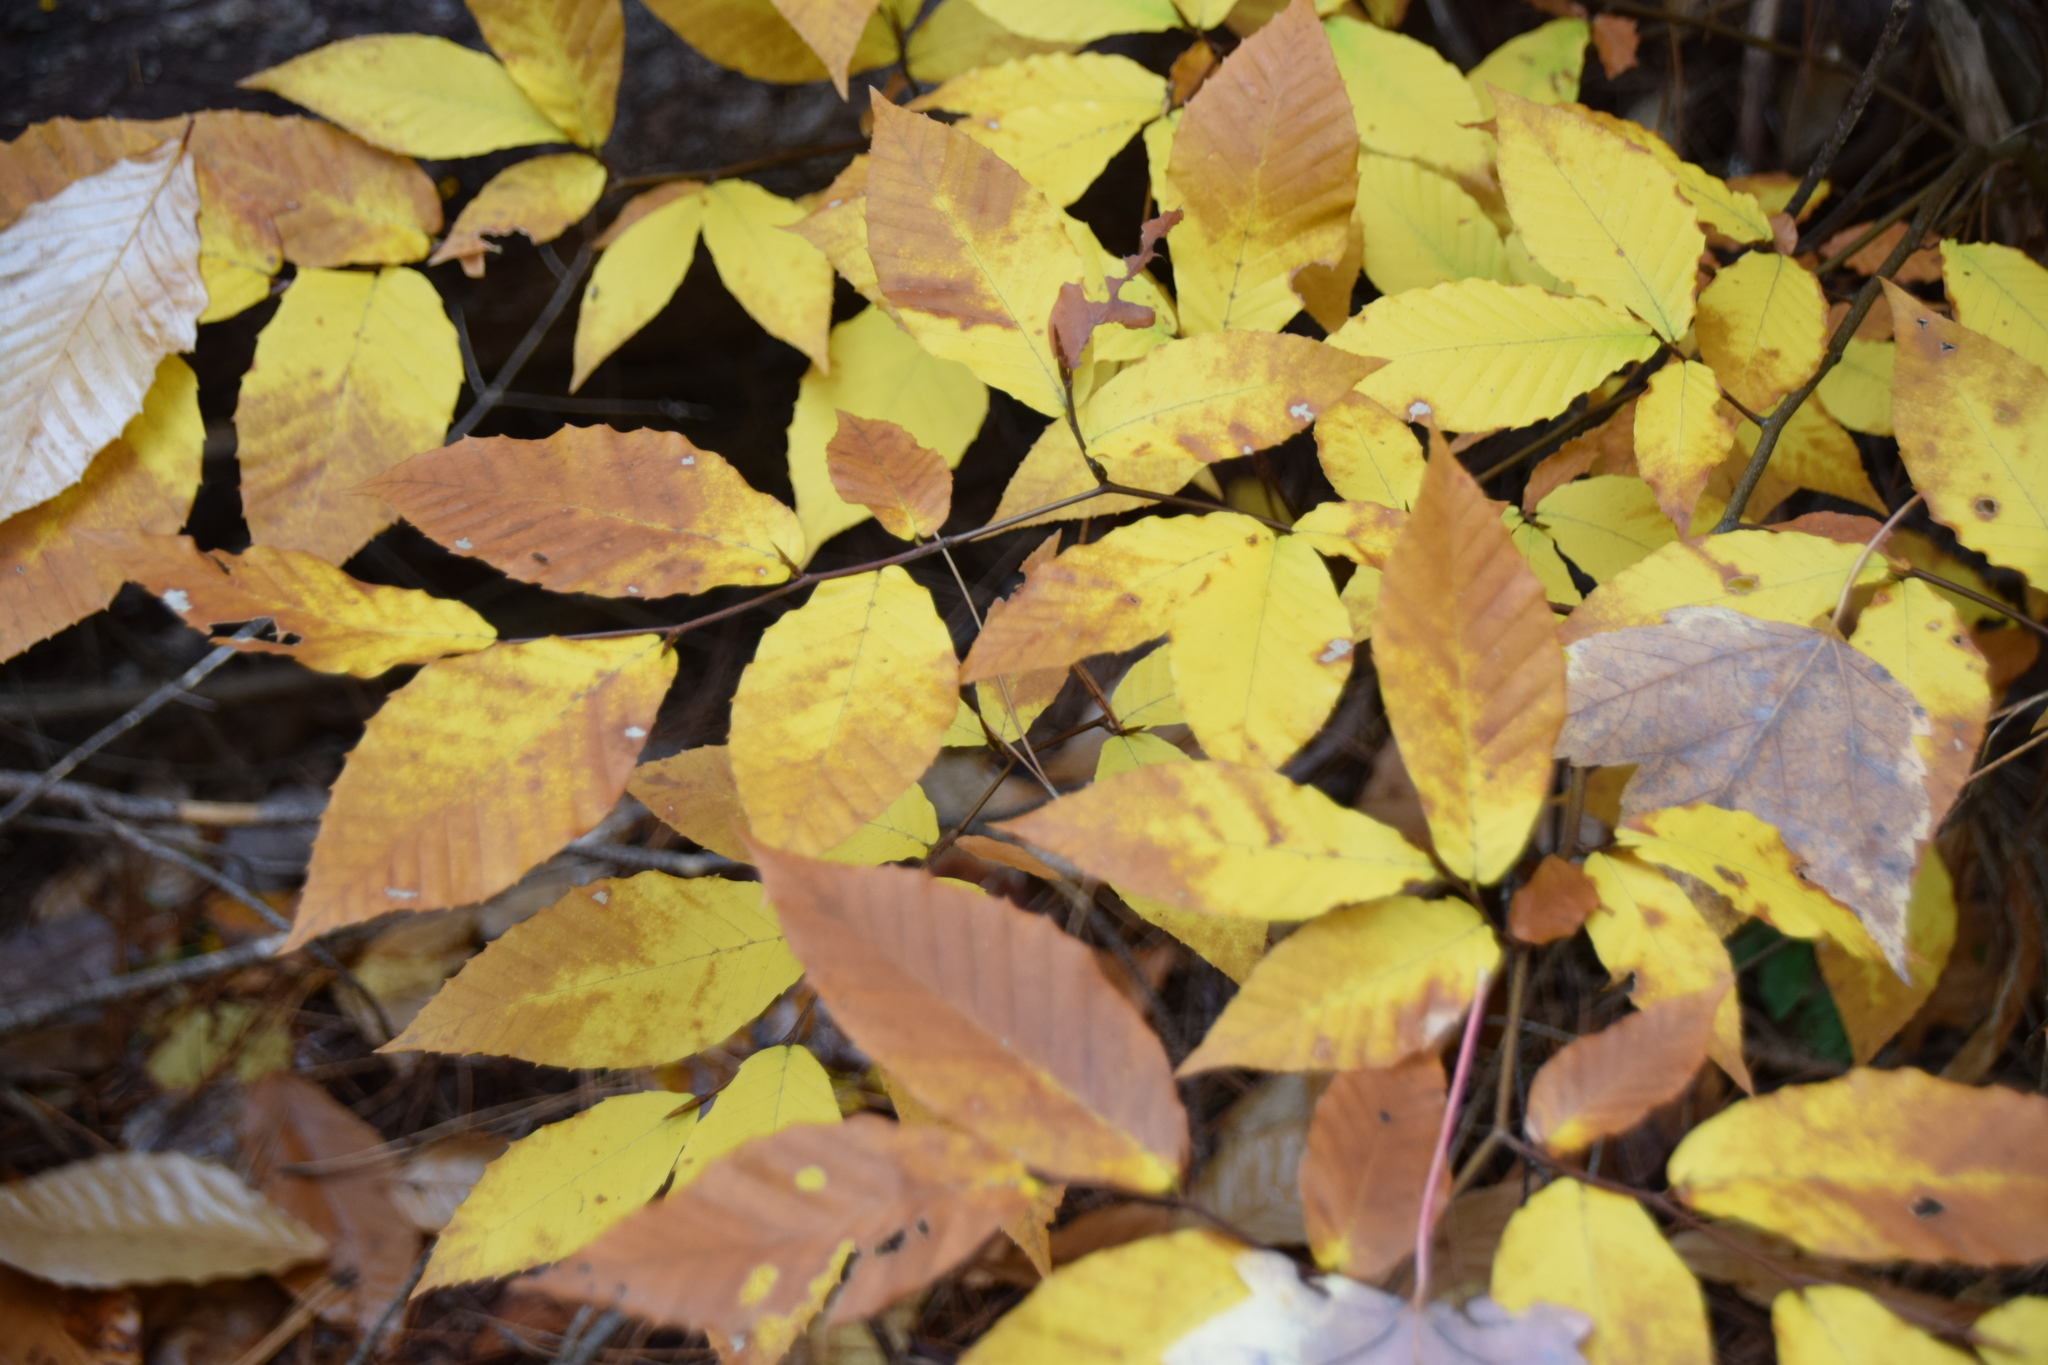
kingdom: Plantae
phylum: Tracheophyta
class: Magnoliopsida
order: Fagales
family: Fagaceae
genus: Fagus
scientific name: Fagus grandifolia
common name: American beech
